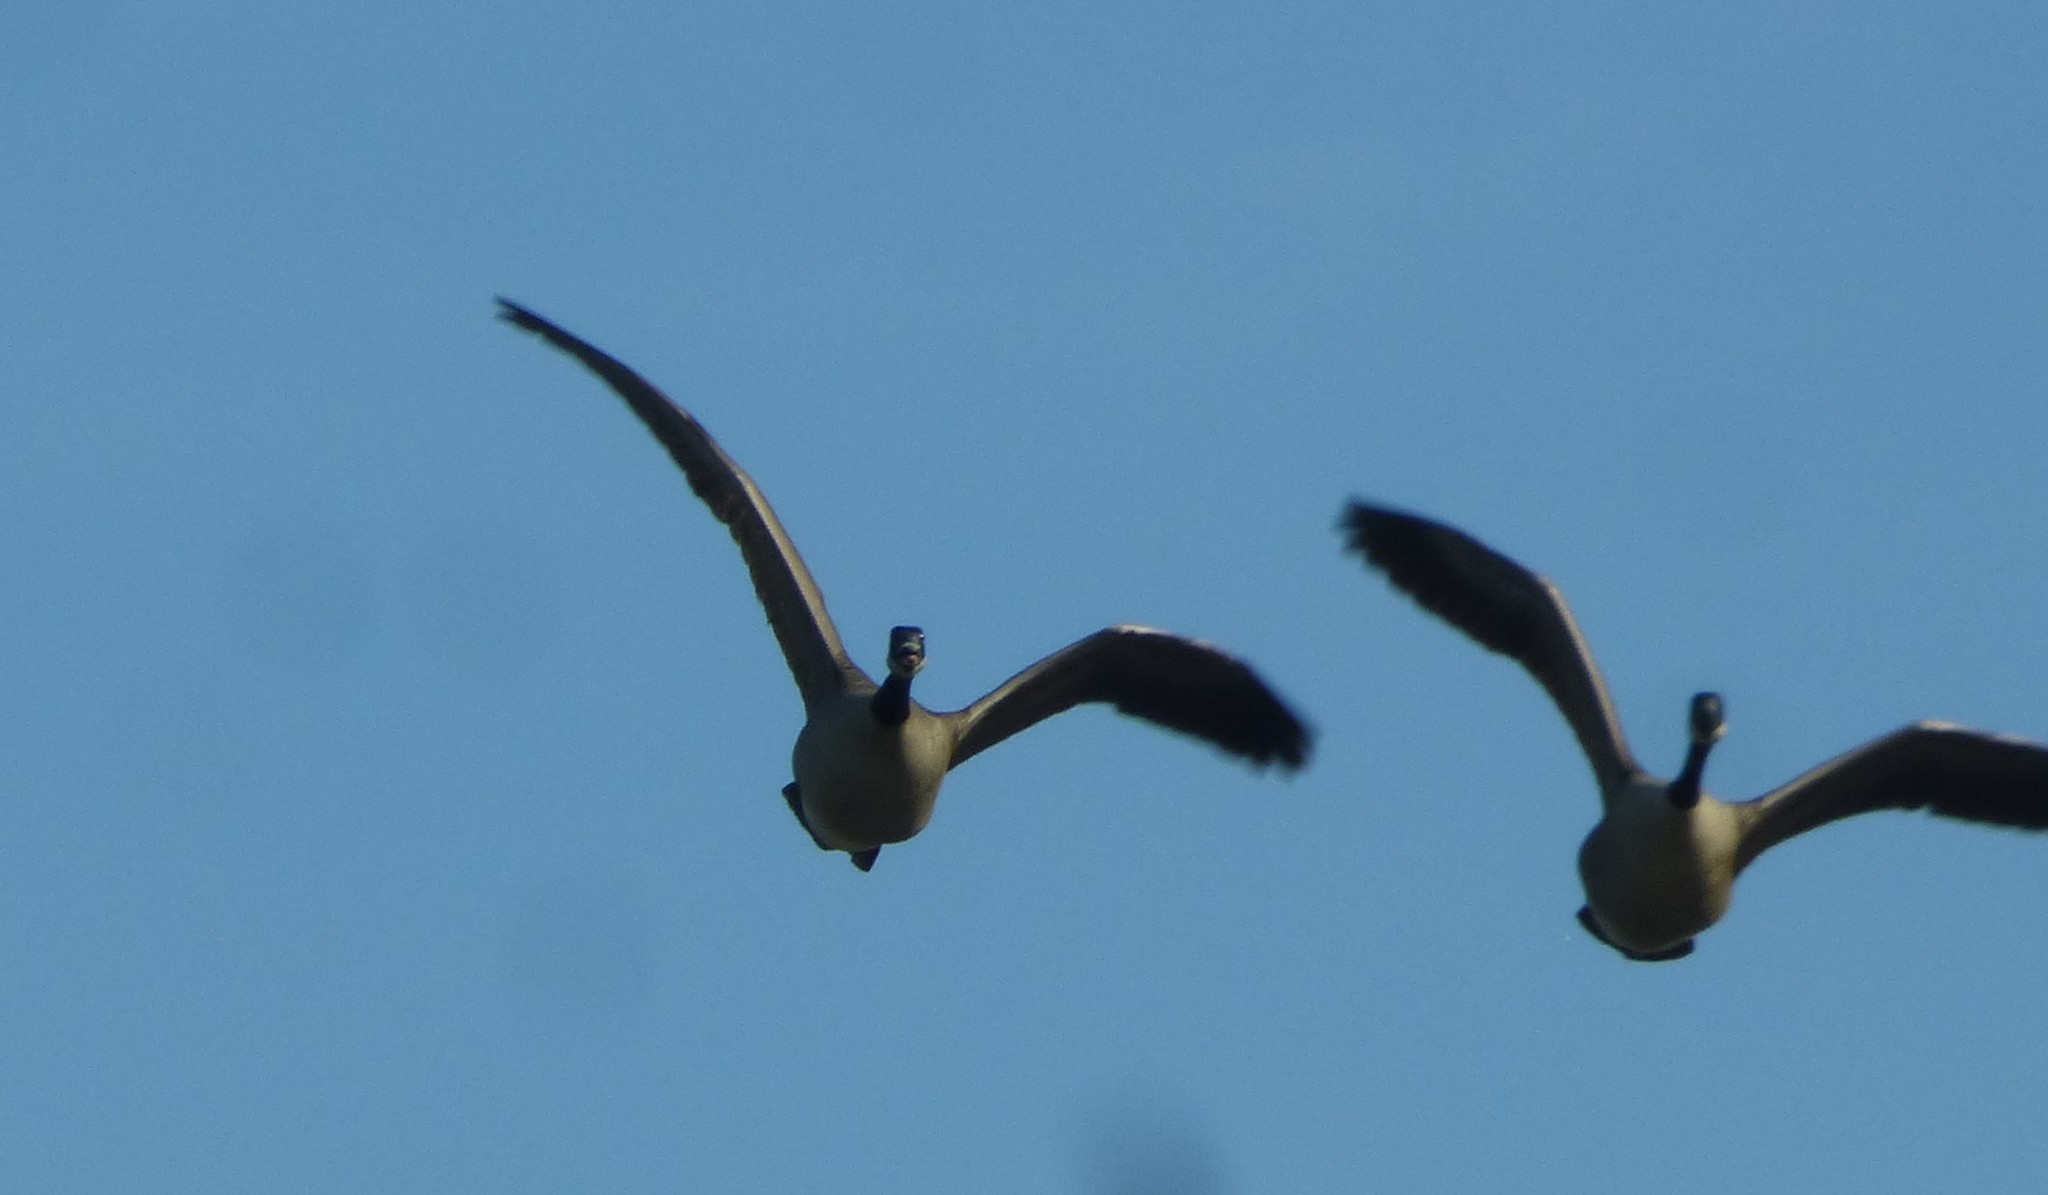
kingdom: Animalia
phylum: Chordata
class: Aves
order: Anseriformes
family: Anatidae
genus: Branta
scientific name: Branta canadensis
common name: Canada goose
